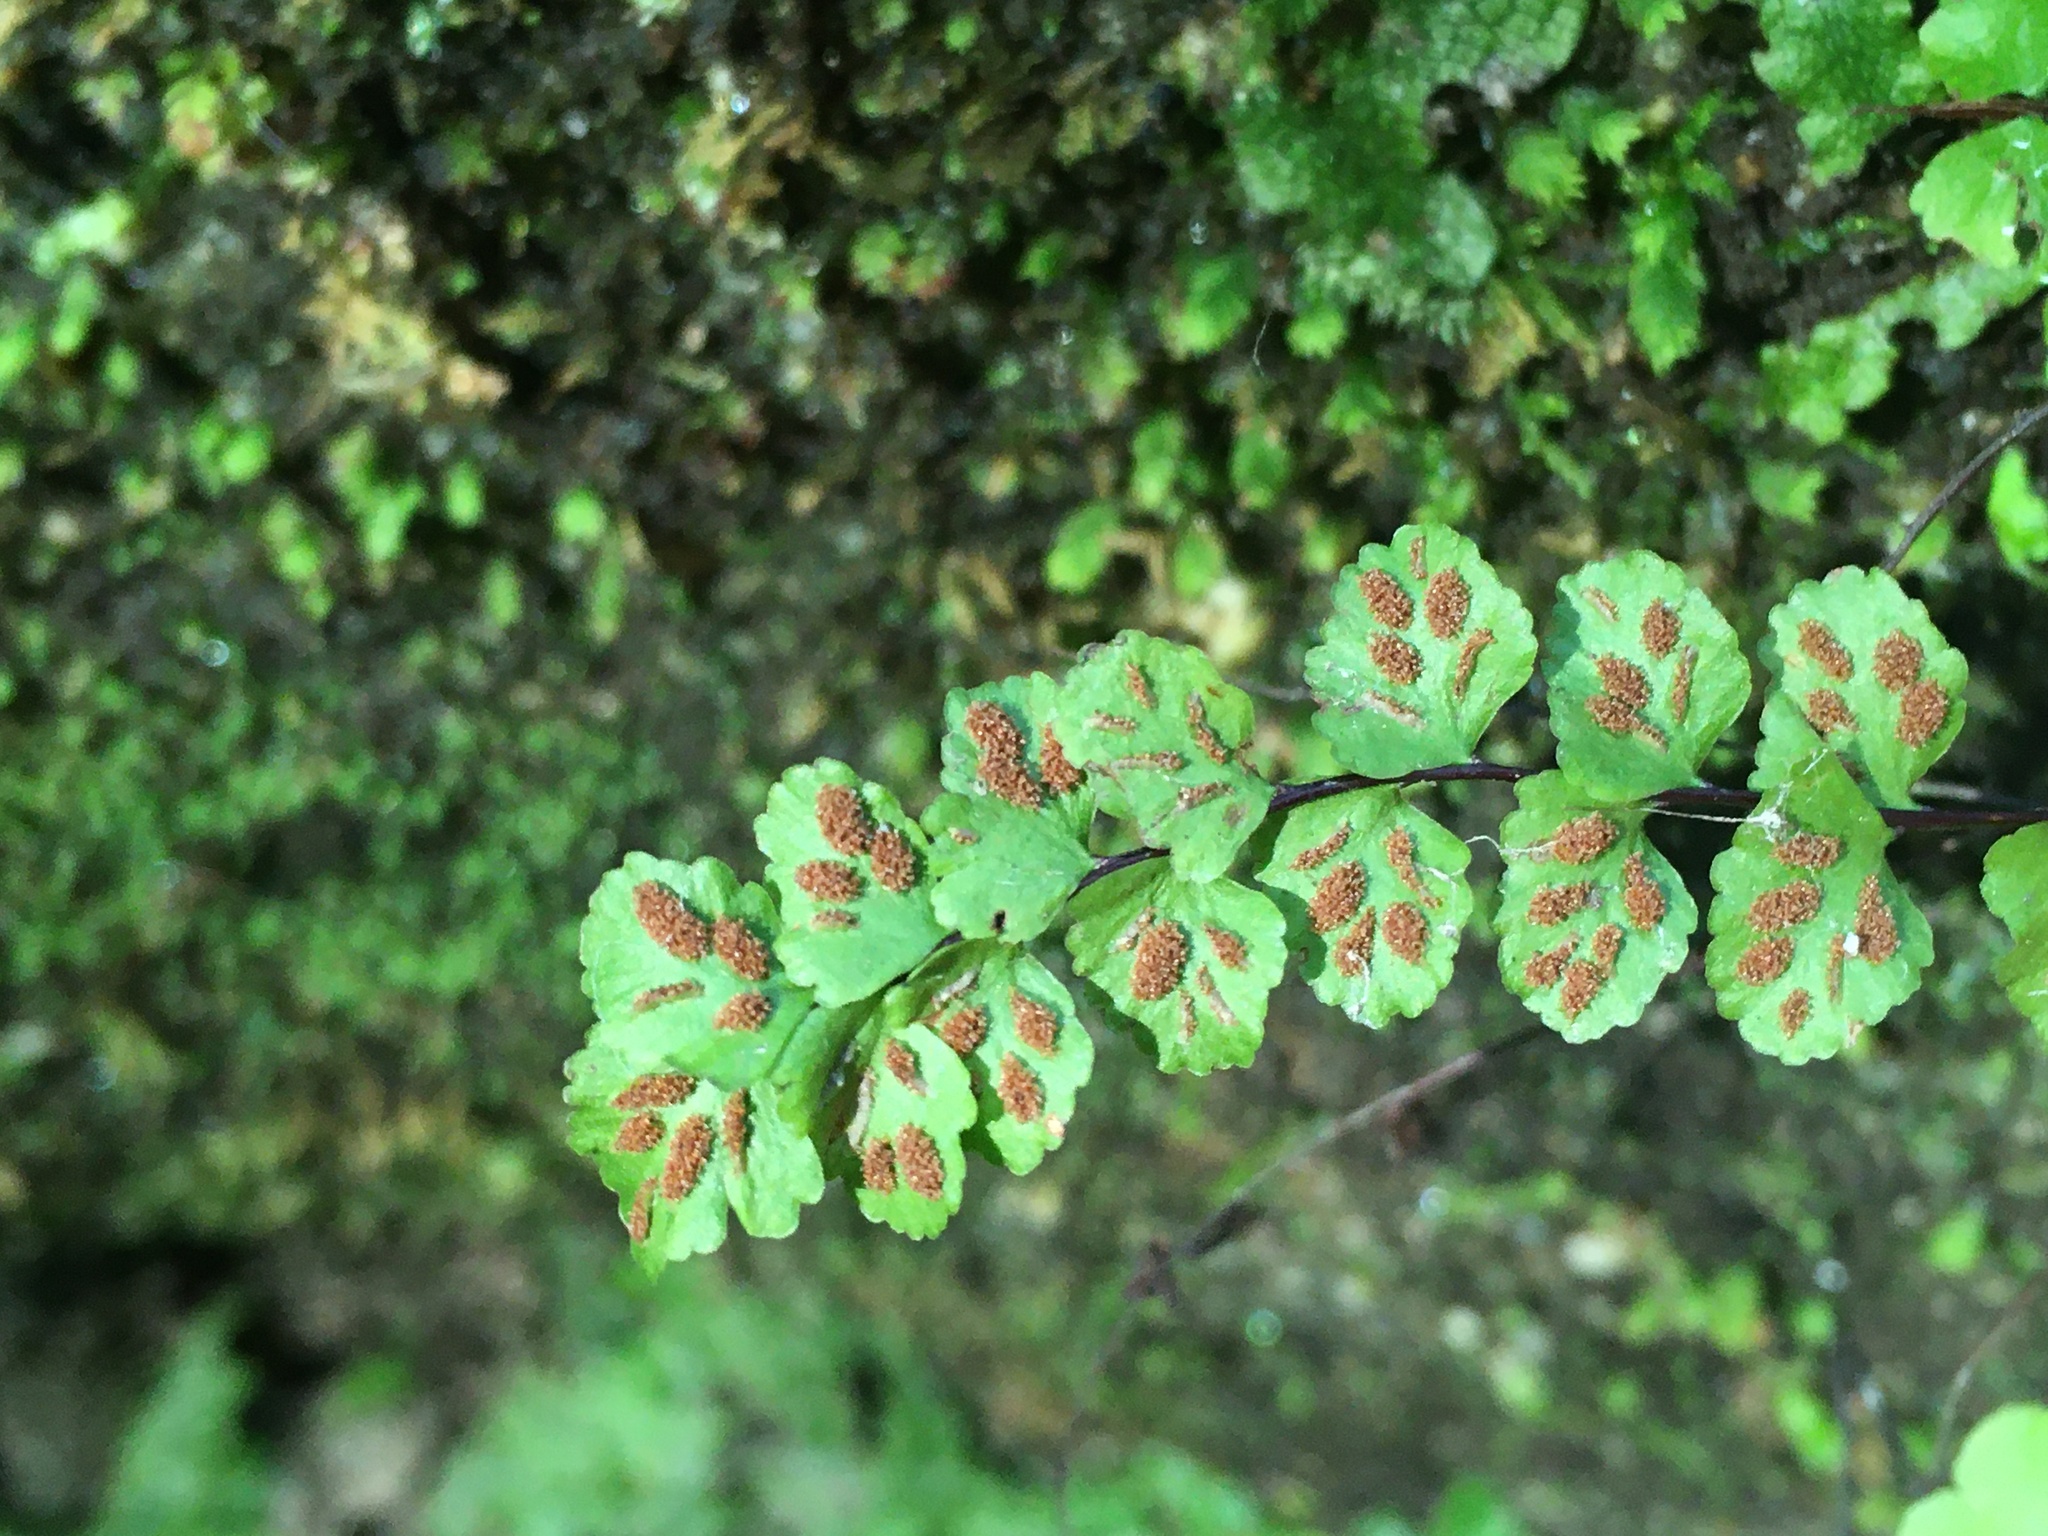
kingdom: Plantae
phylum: Tracheophyta
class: Polypodiopsida
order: Polypodiales
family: Aspleniaceae
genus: Asplenium
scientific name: Asplenium trichomanes
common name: Maidenhair spleenwort
